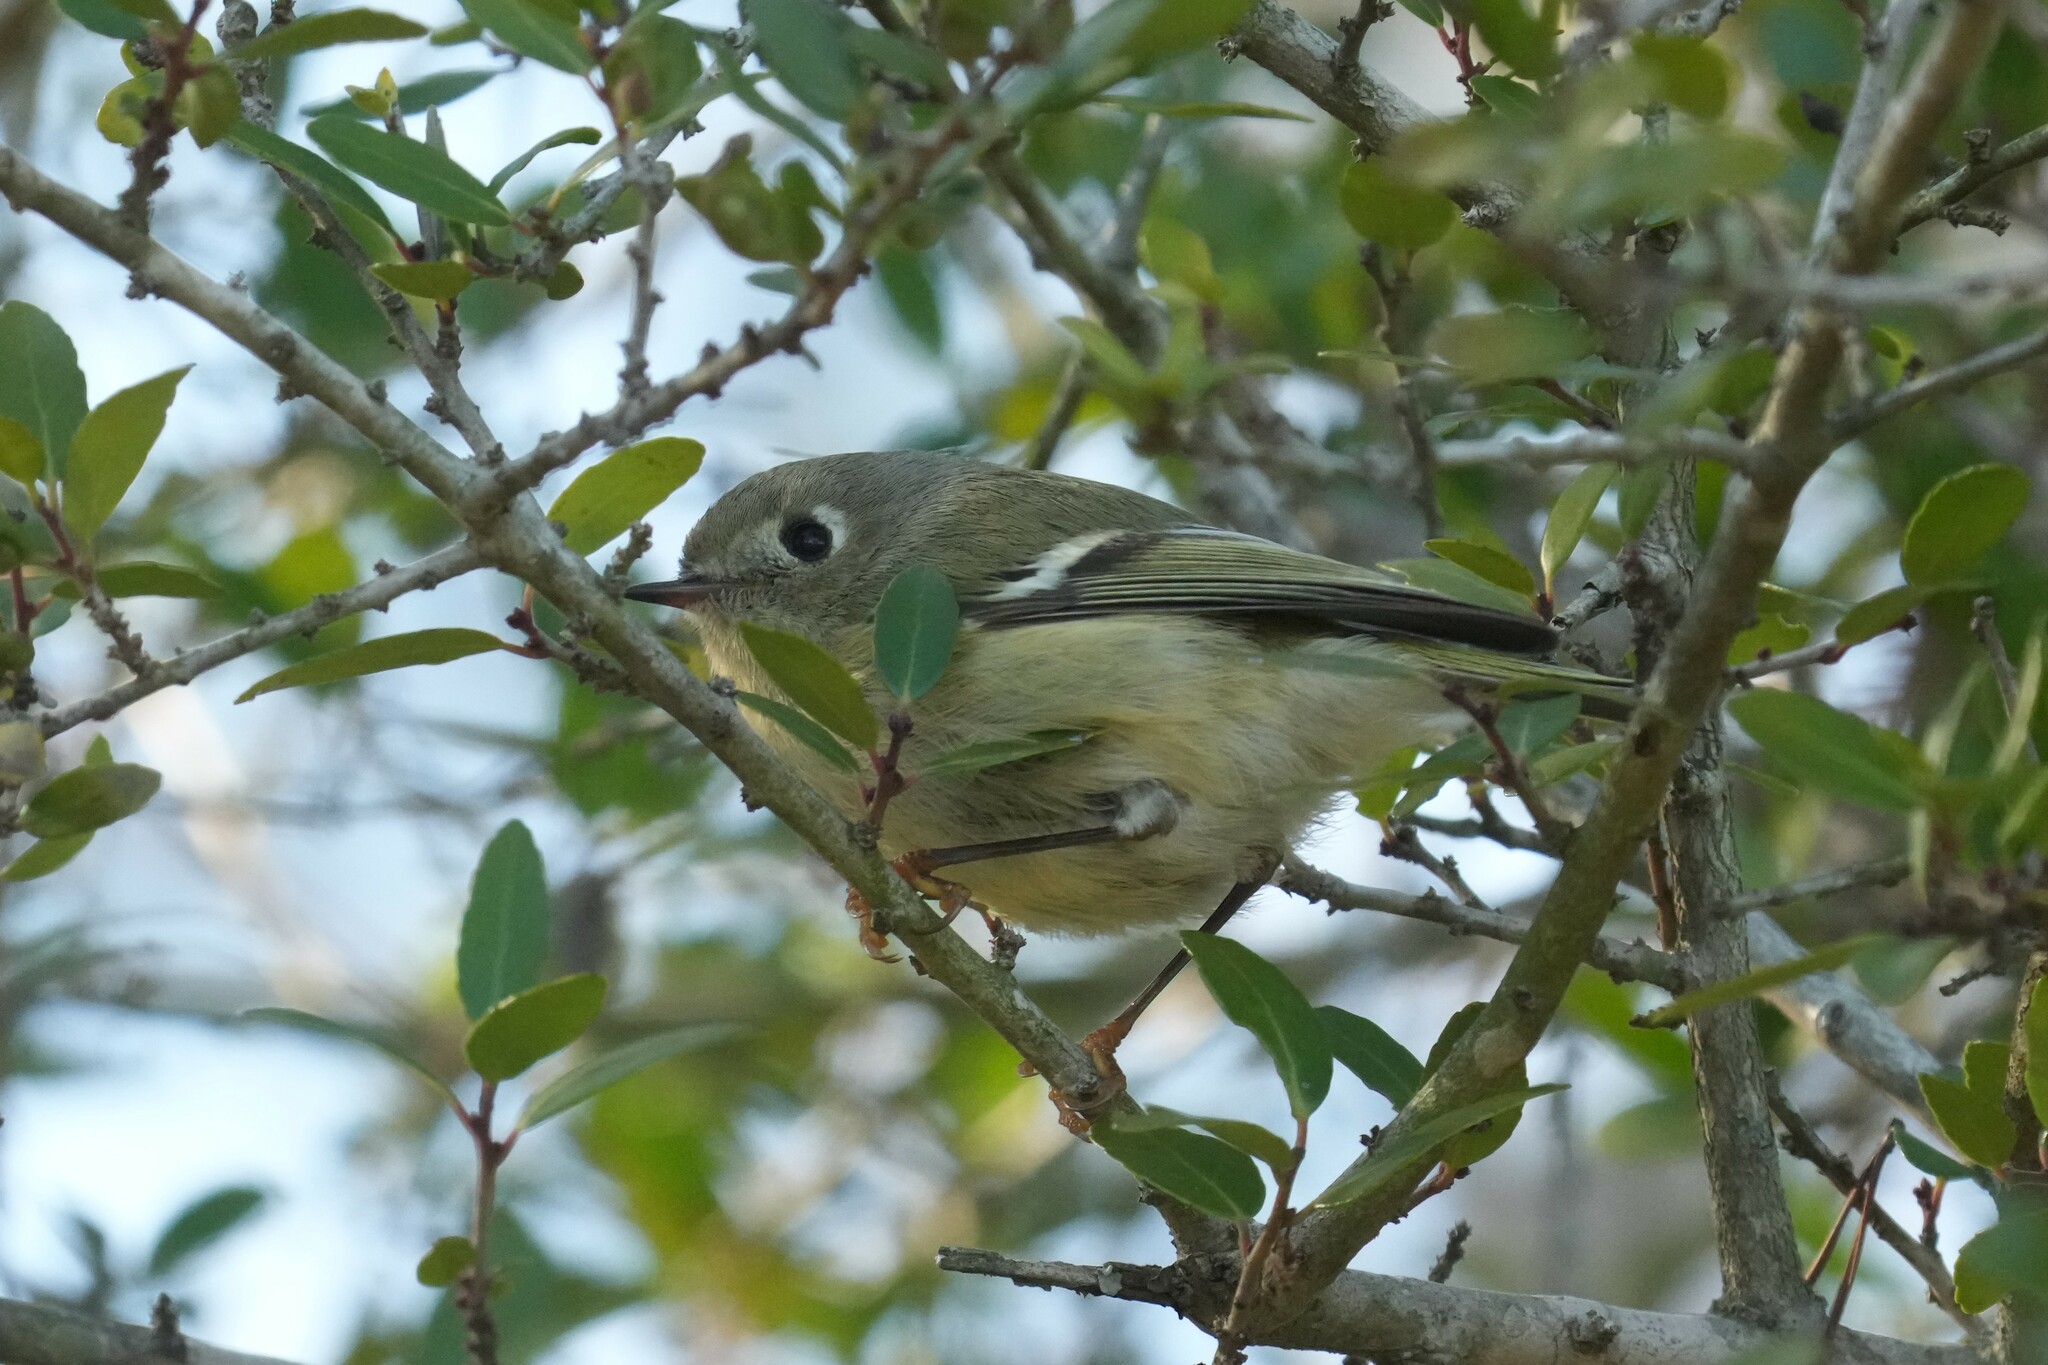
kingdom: Animalia
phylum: Chordata
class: Aves
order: Passeriformes
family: Regulidae
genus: Regulus
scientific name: Regulus calendula
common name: Ruby-crowned kinglet
